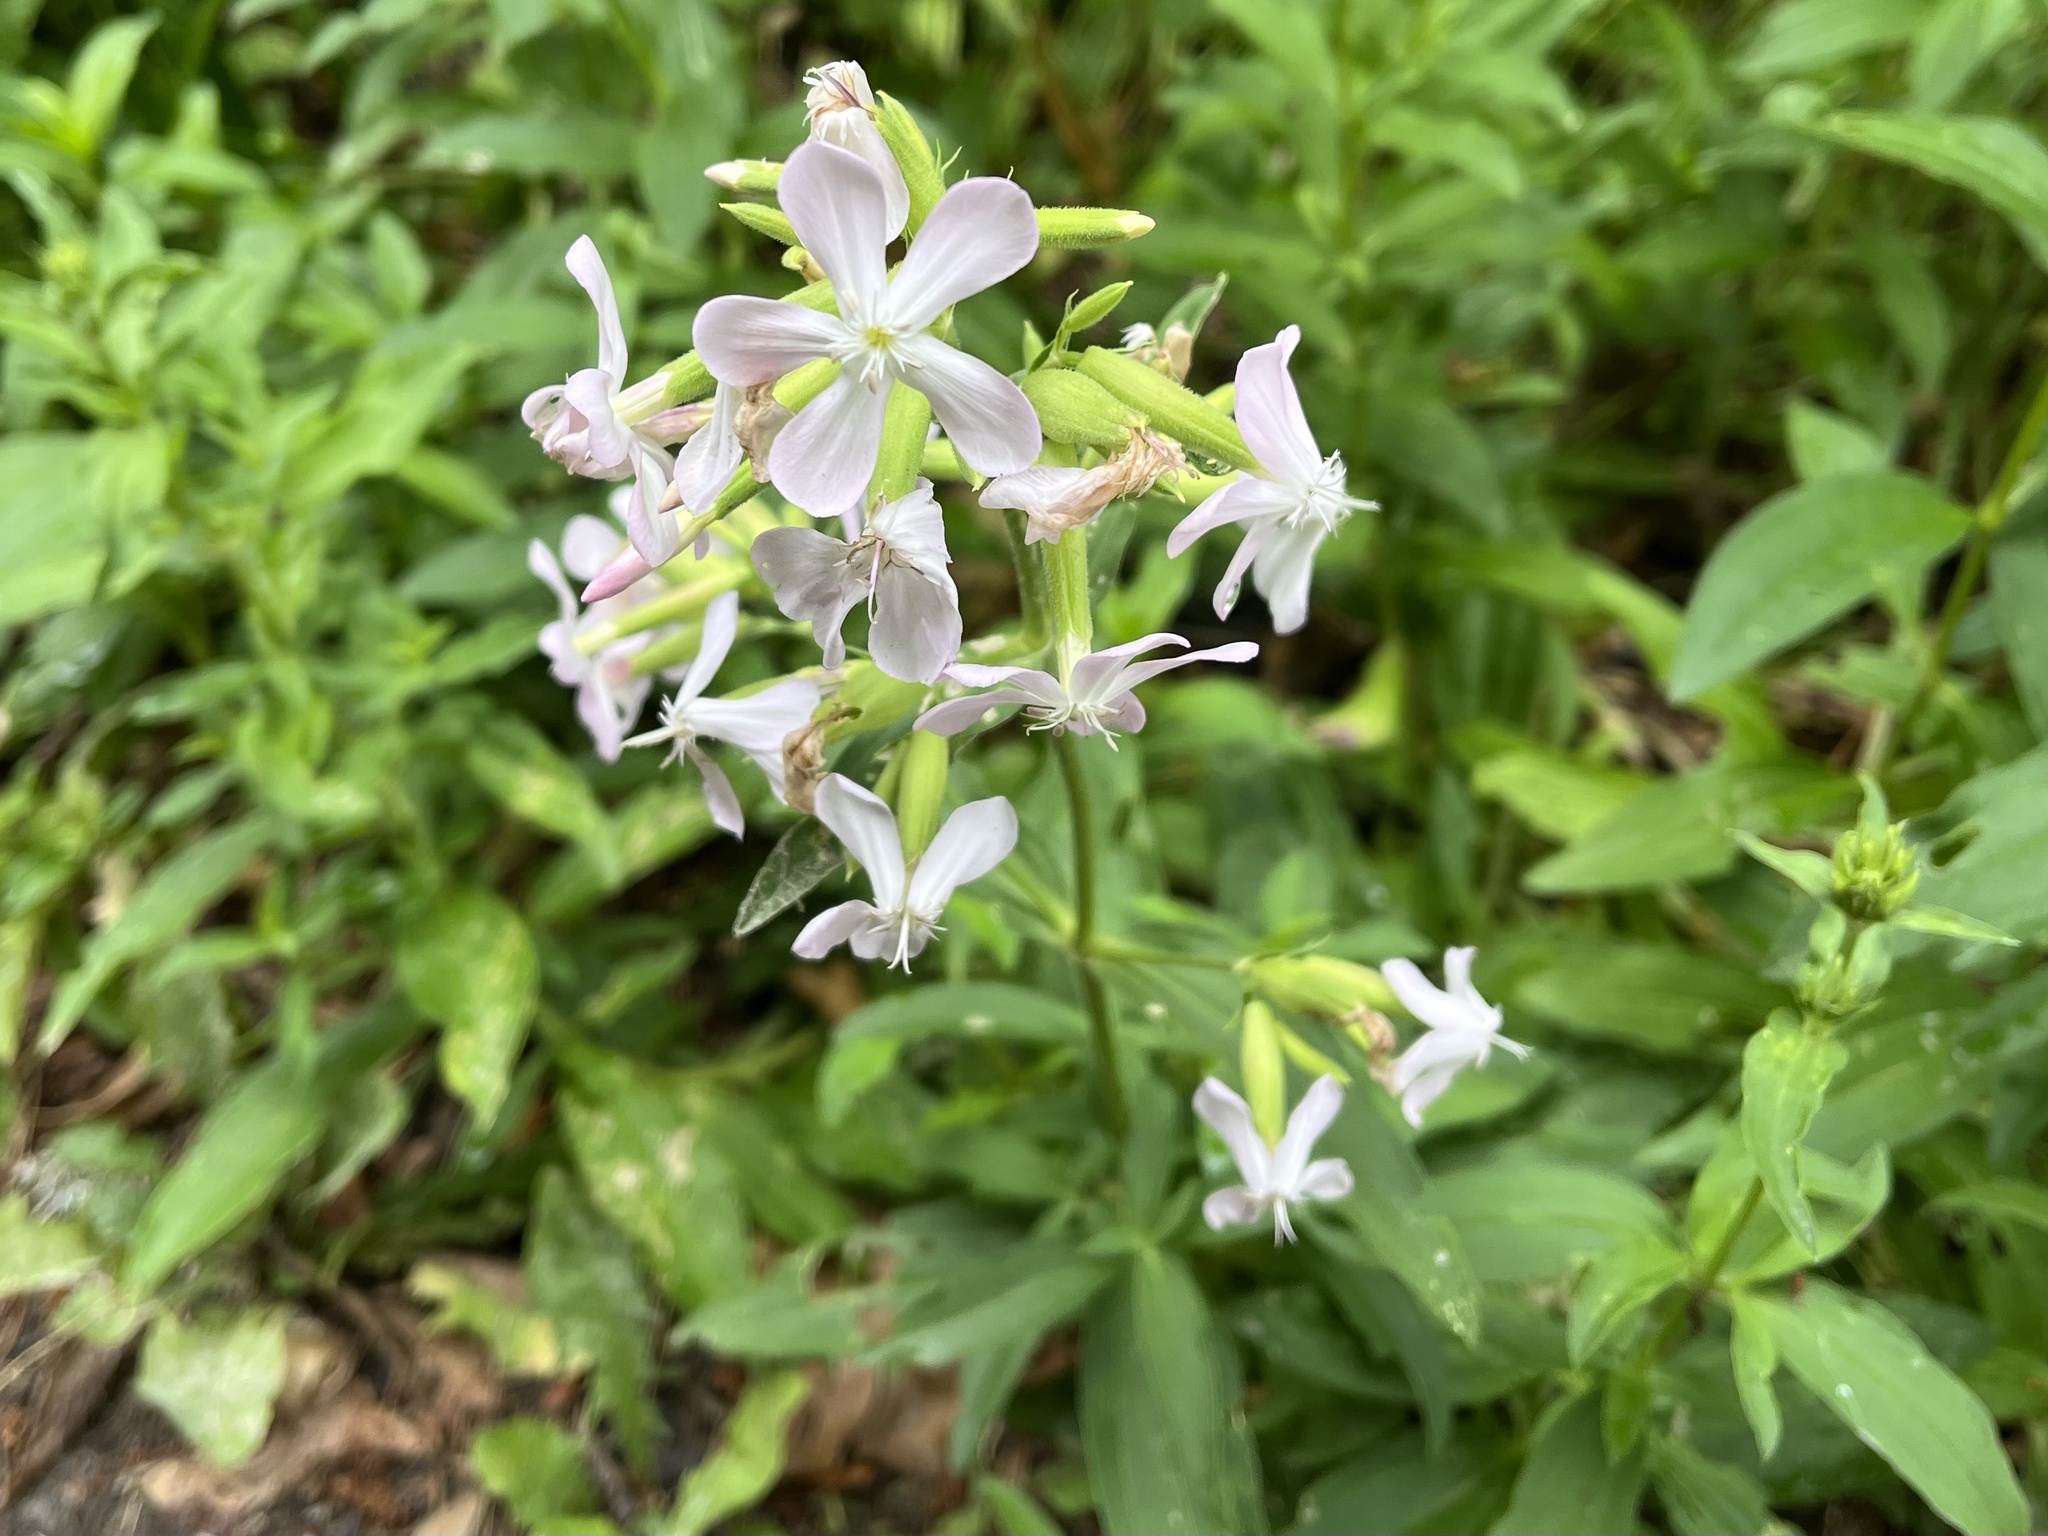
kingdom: Plantae
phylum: Tracheophyta
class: Magnoliopsida
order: Caryophyllales
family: Caryophyllaceae
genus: Saponaria
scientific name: Saponaria officinalis
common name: Soapwort
